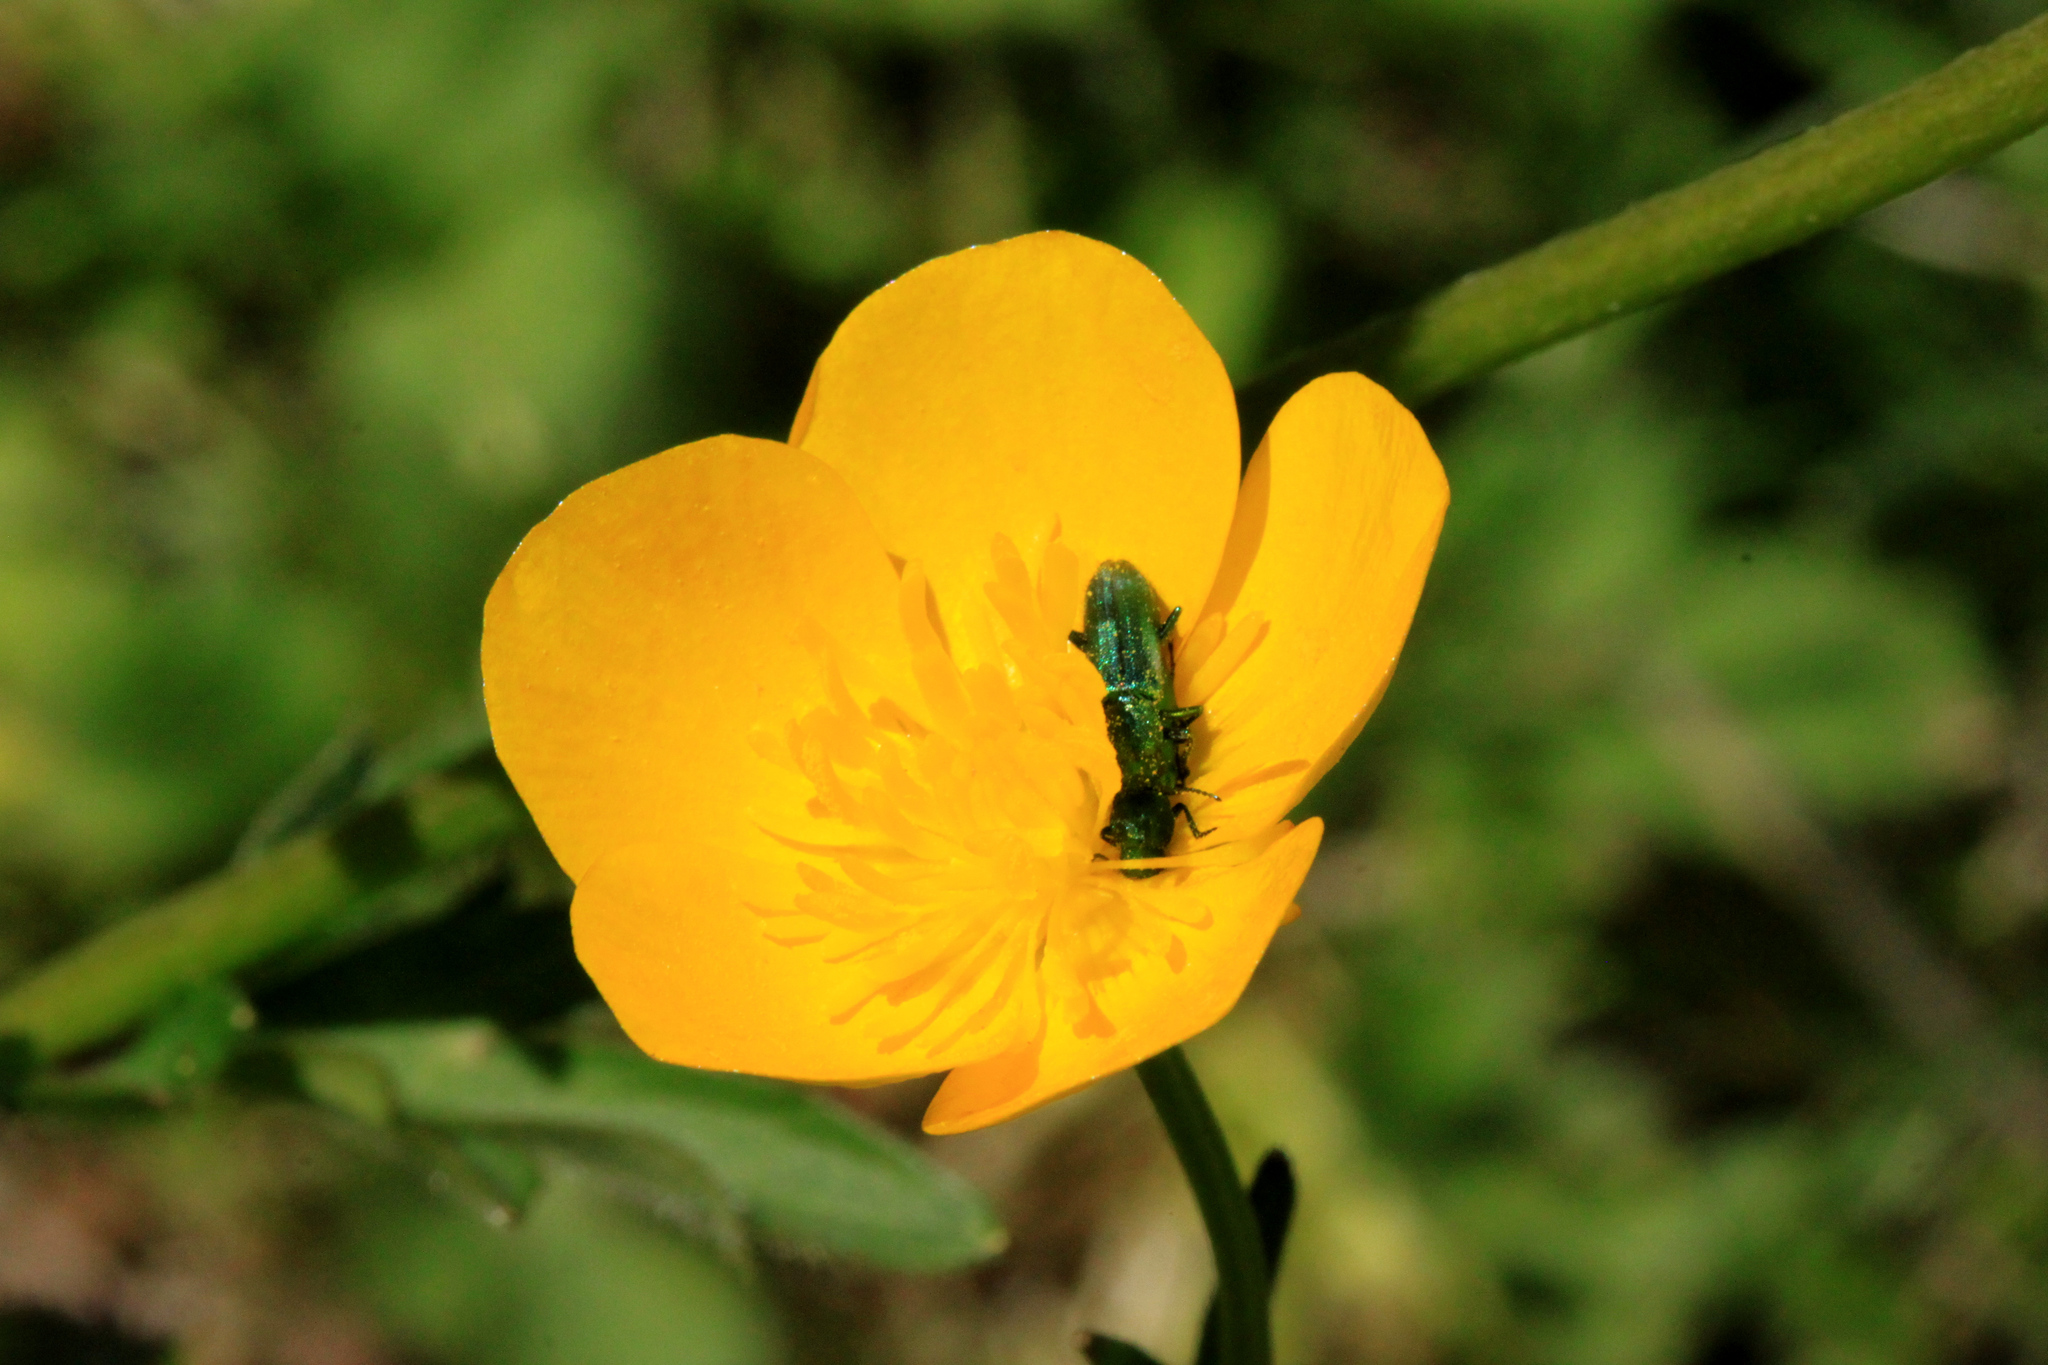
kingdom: Animalia
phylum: Arthropoda
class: Insecta
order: Coleoptera
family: Dasytidae
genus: Psilothrix
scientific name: Psilothrix viridicoerulea
